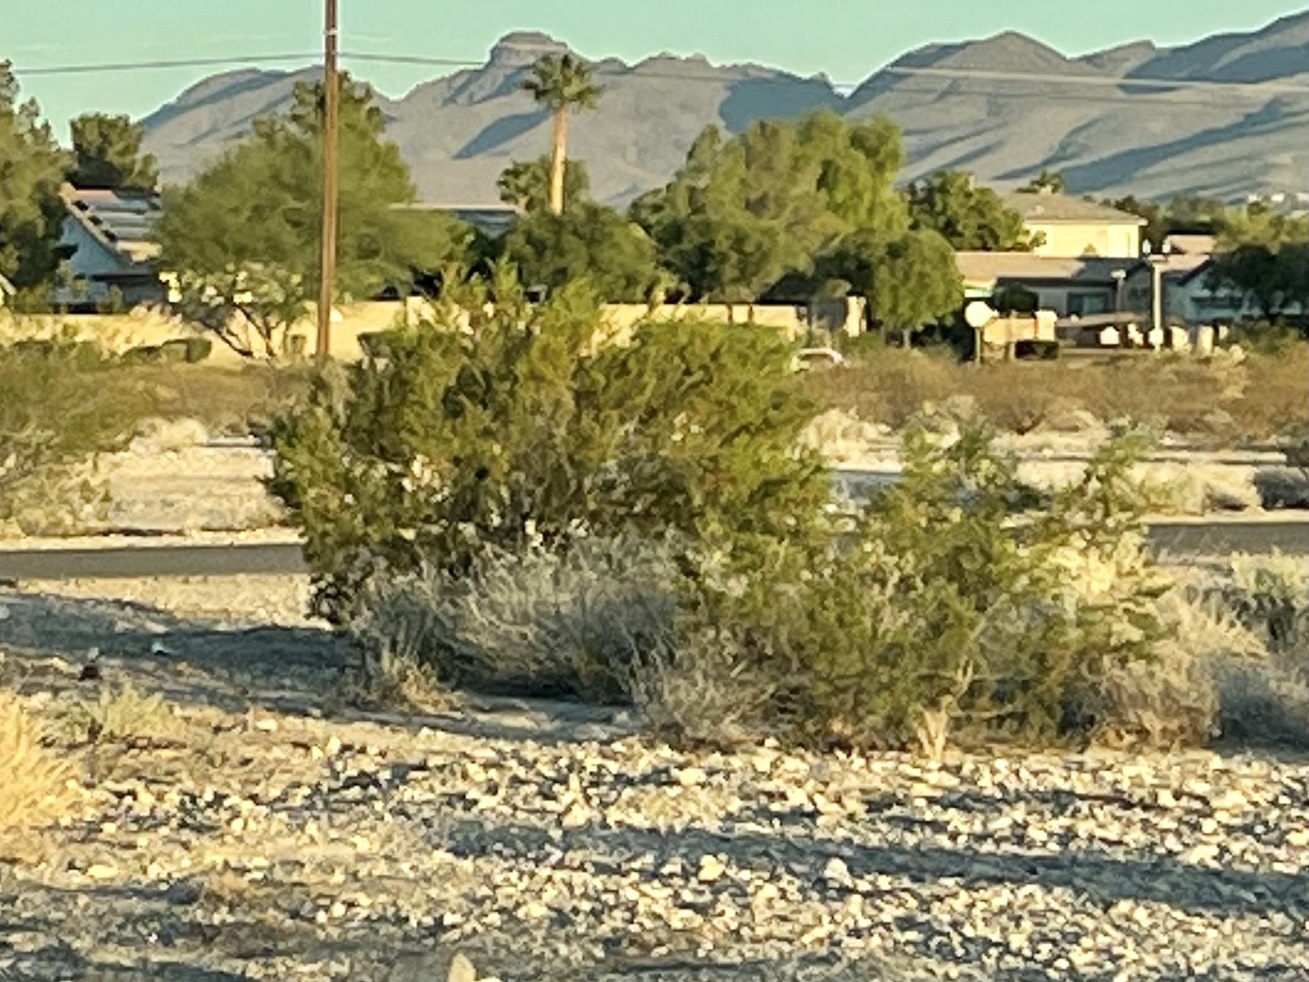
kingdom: Plantae
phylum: Tracheophyta
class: Magnoliopsida
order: Zygophyllales
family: Zygophyllaceae
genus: Larrea
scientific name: Larrea tridentata
